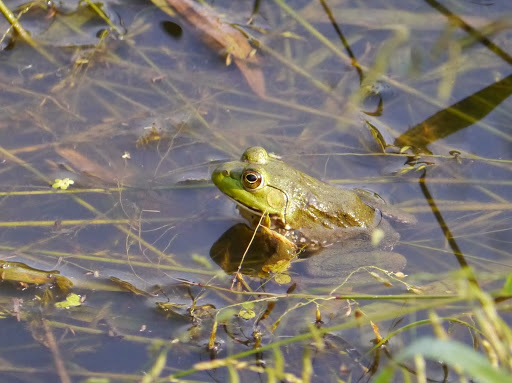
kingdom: Animalia
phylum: Chordata
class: Amphibia
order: Anura
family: Ranidae
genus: Lithobates
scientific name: Lithobates catesbeianus
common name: American bullfrog
